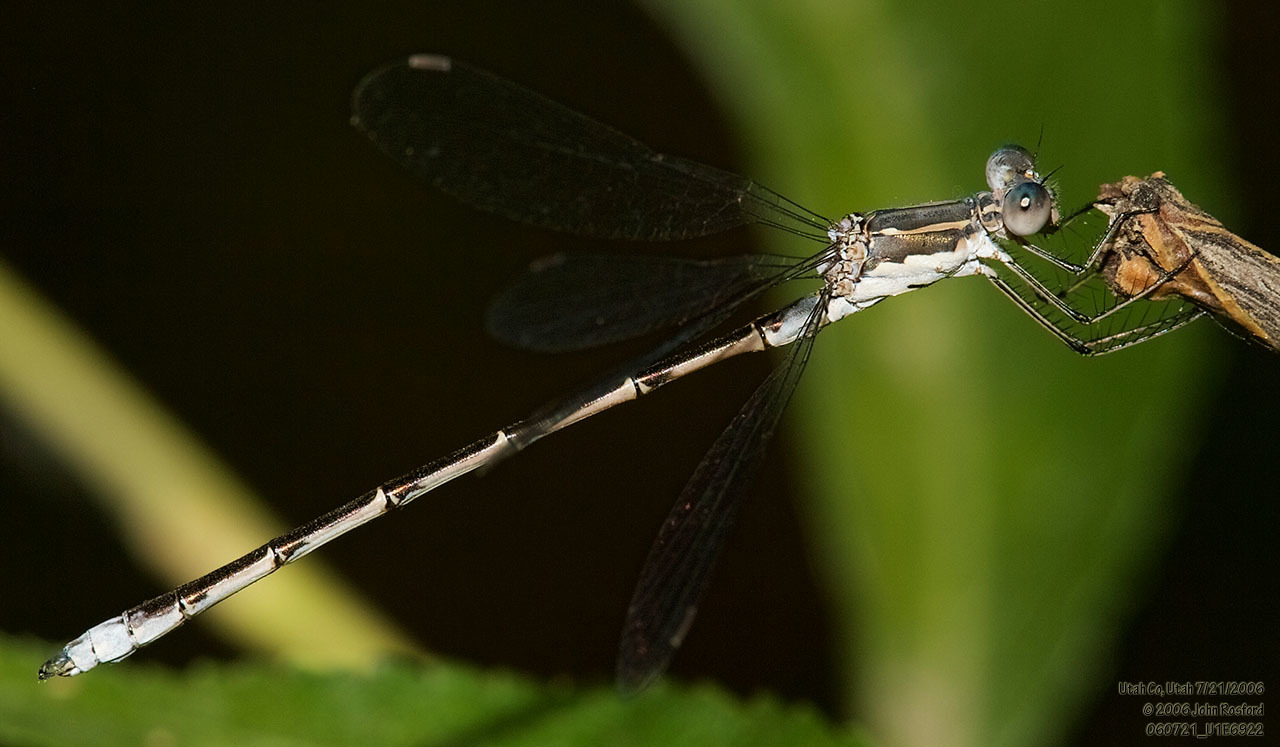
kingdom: Animalia
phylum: Arthropoda
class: Insecta
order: Odonata
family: Lestidae
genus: Lestes
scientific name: Lestes congener
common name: Spotted spreadwing
